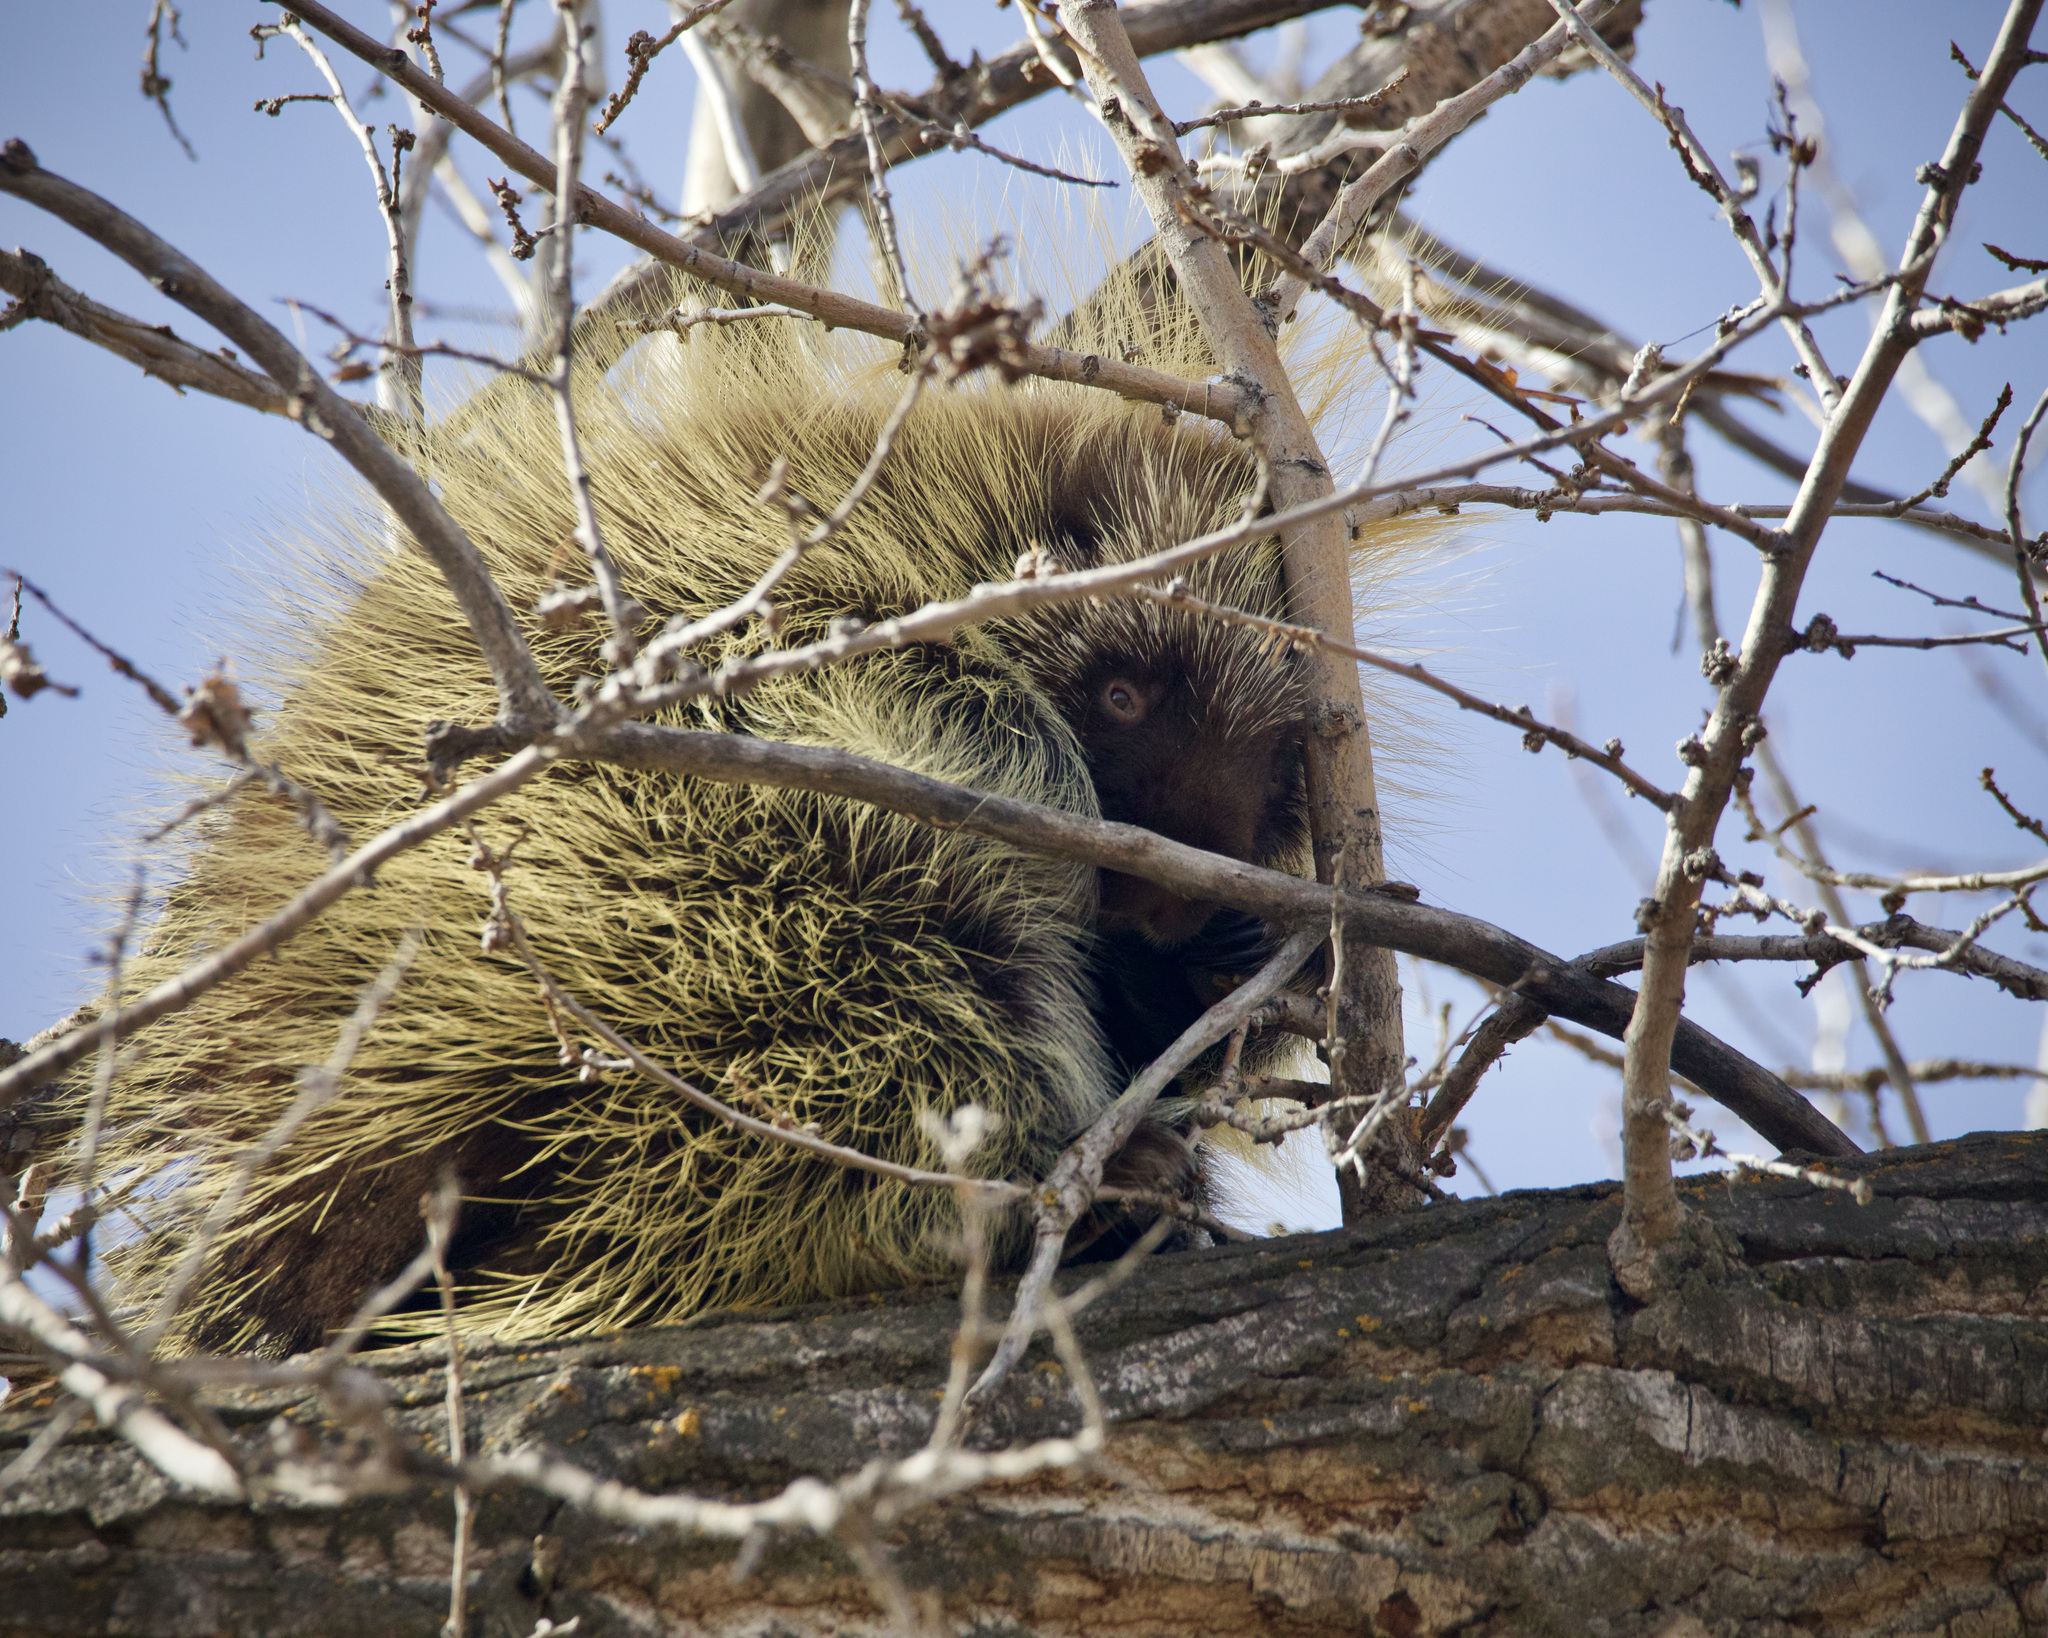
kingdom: Animalia
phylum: Chordata
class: Mammalia
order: Rodentia
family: Erethizontidae
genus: Erethizon
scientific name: Erethizon dorsatus
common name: North american porcupine
